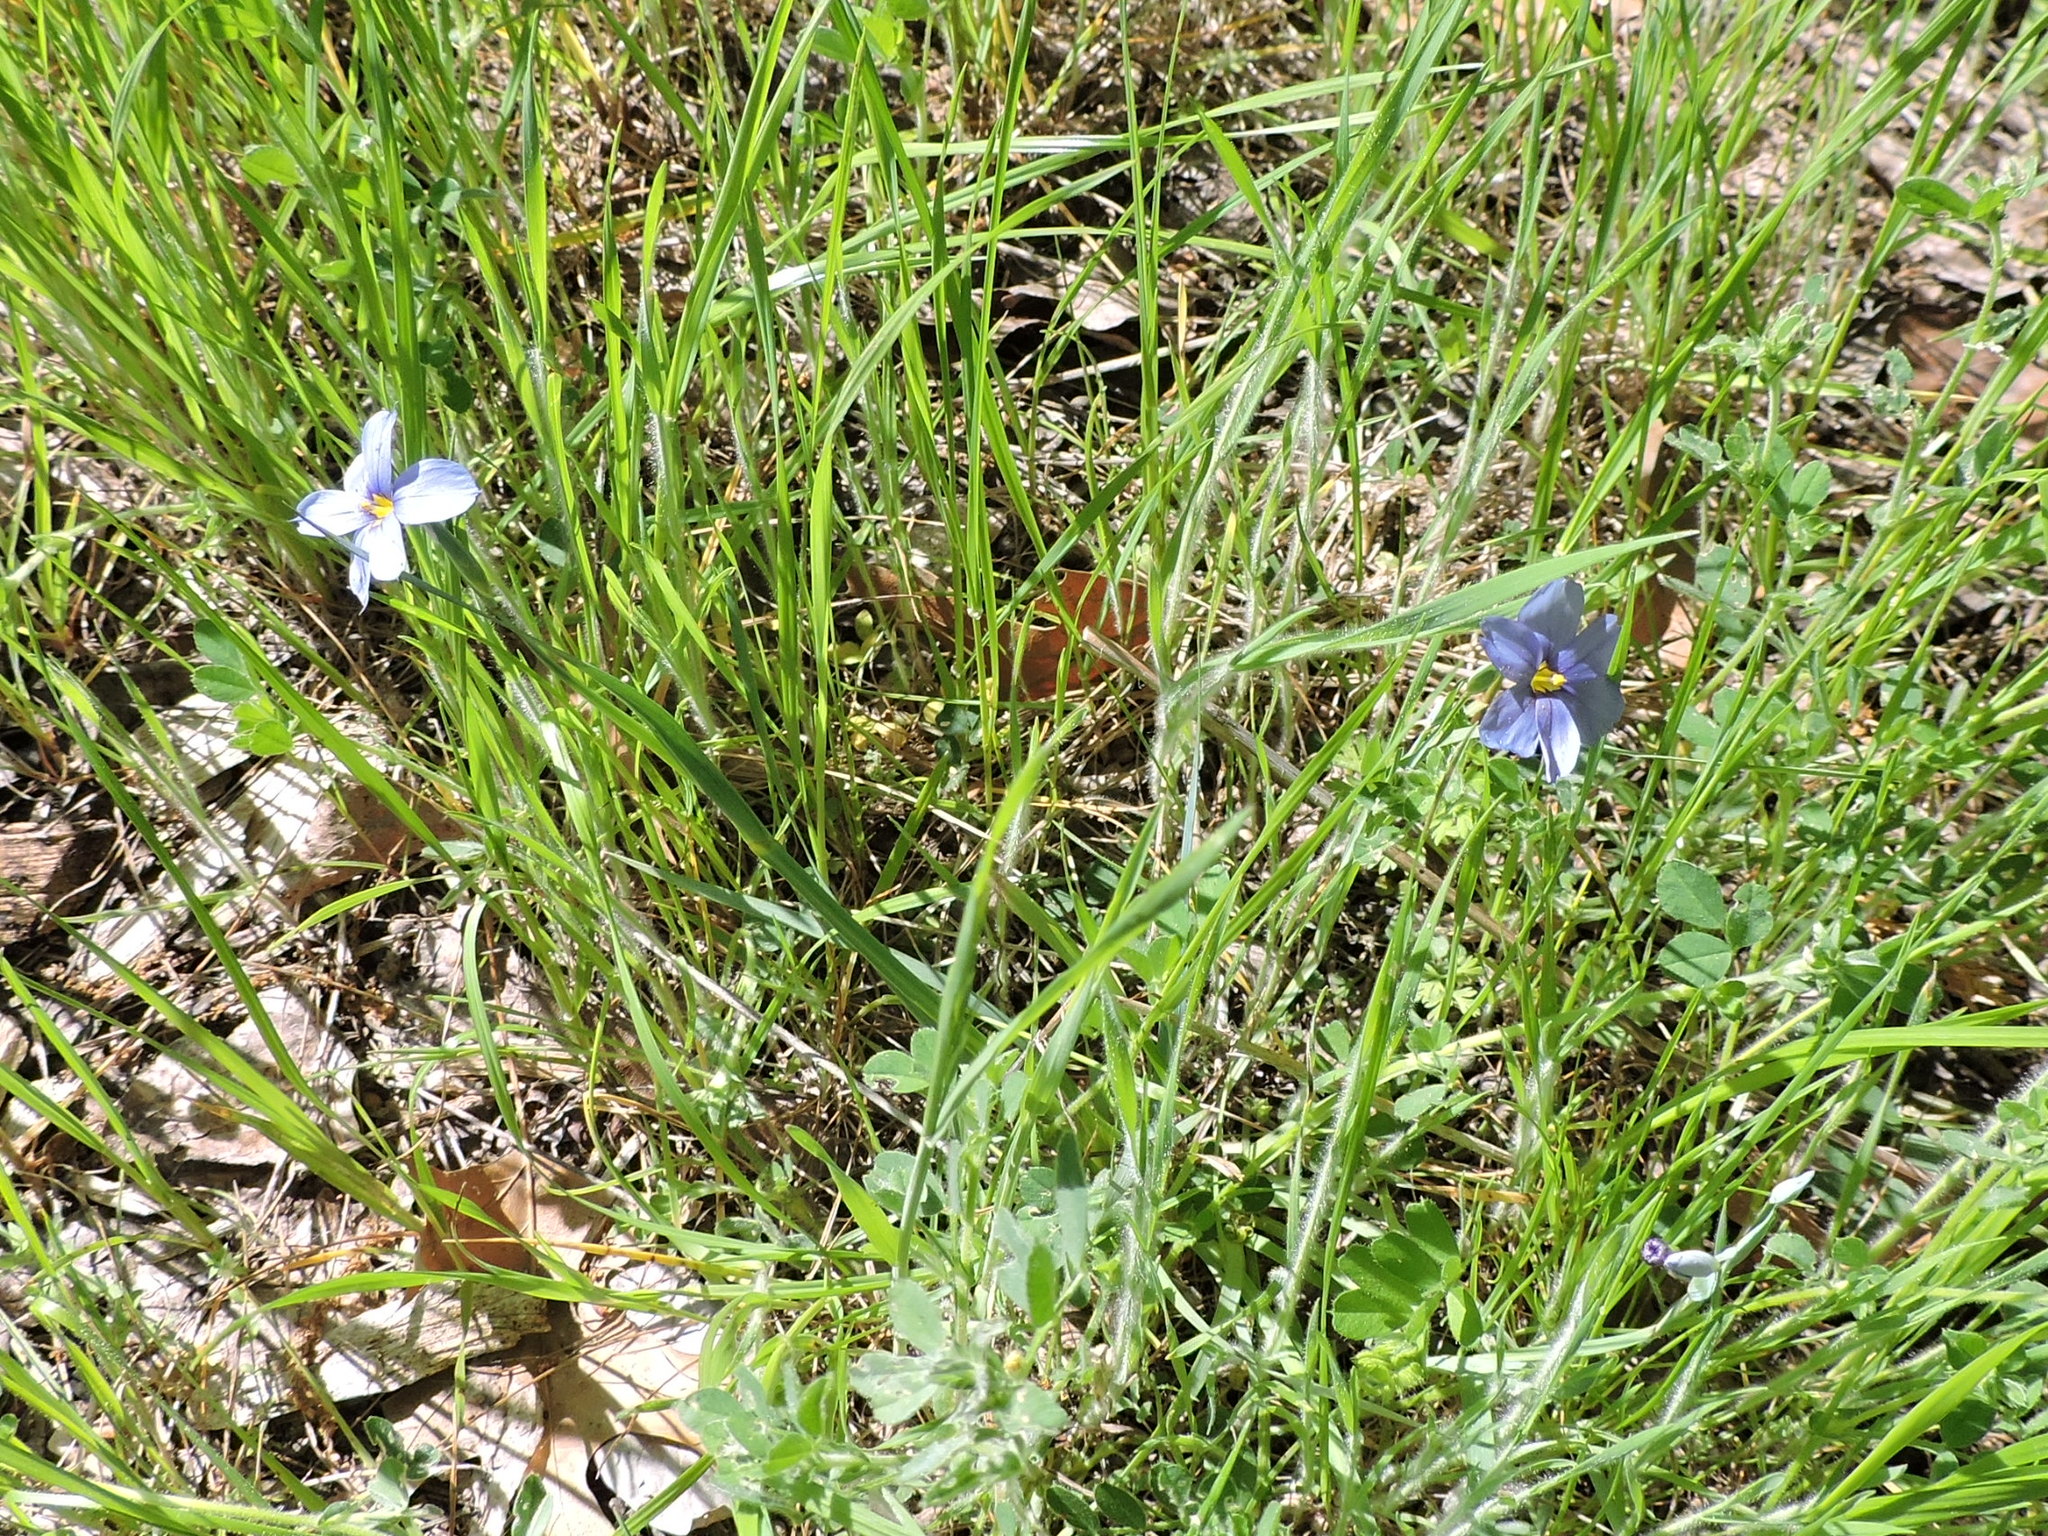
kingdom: Plantae
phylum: Tracheophyta
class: Liliopsida
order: Asparagales
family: Iridaceae
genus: Sisyrinchium
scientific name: Sisyrinchium angustifolium
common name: Narrow-leaf blue-eyed-grass
